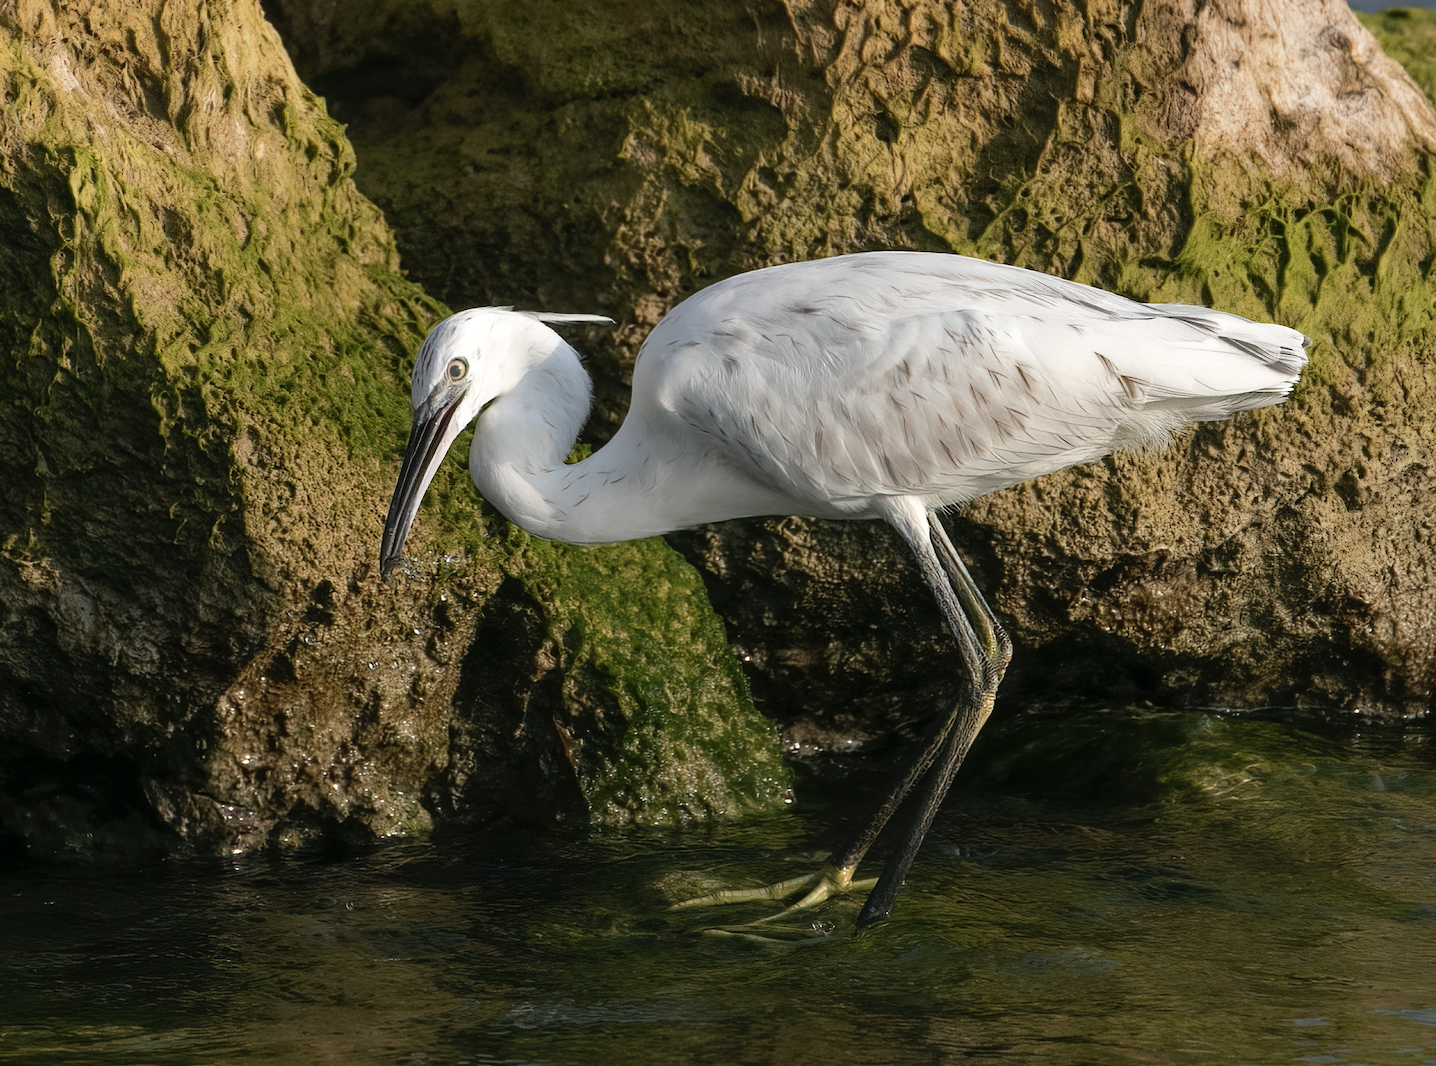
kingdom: Animalia
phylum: Chordata
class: Aves
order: Pelecaniformes
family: Ardeidae
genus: Egretta
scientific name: Egretta
